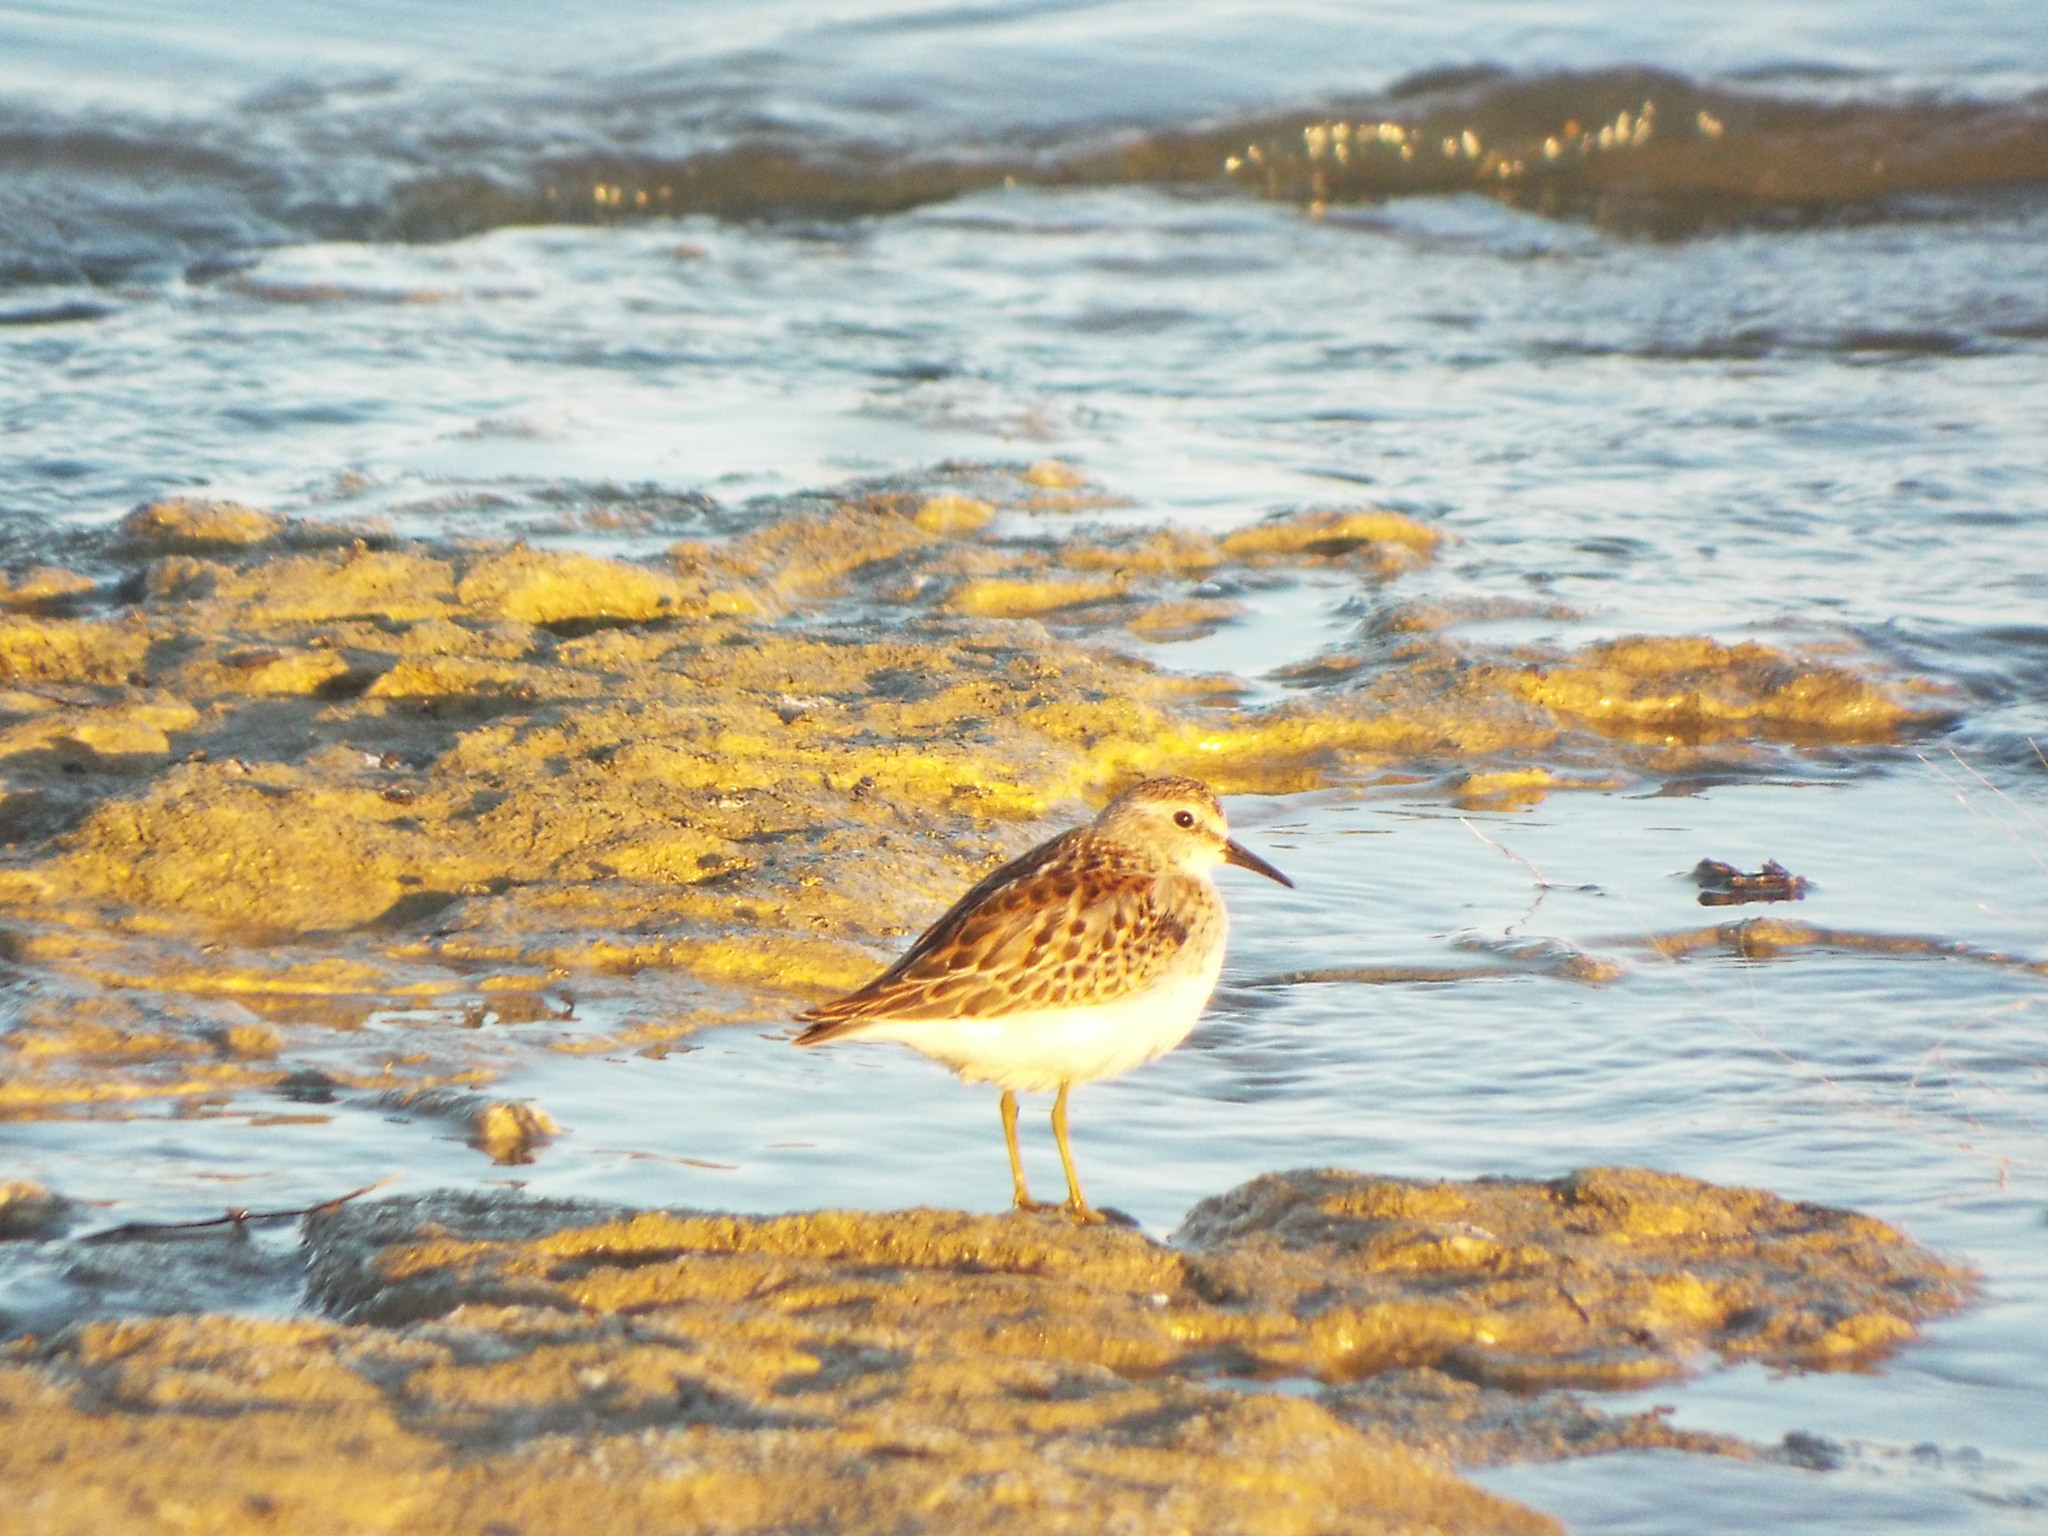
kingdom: Animalia
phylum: Chordata
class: Aves
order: Charadriiformes
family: Scolopacidae
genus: Calidris
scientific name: Calidris minutilla
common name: Least sandpiper
